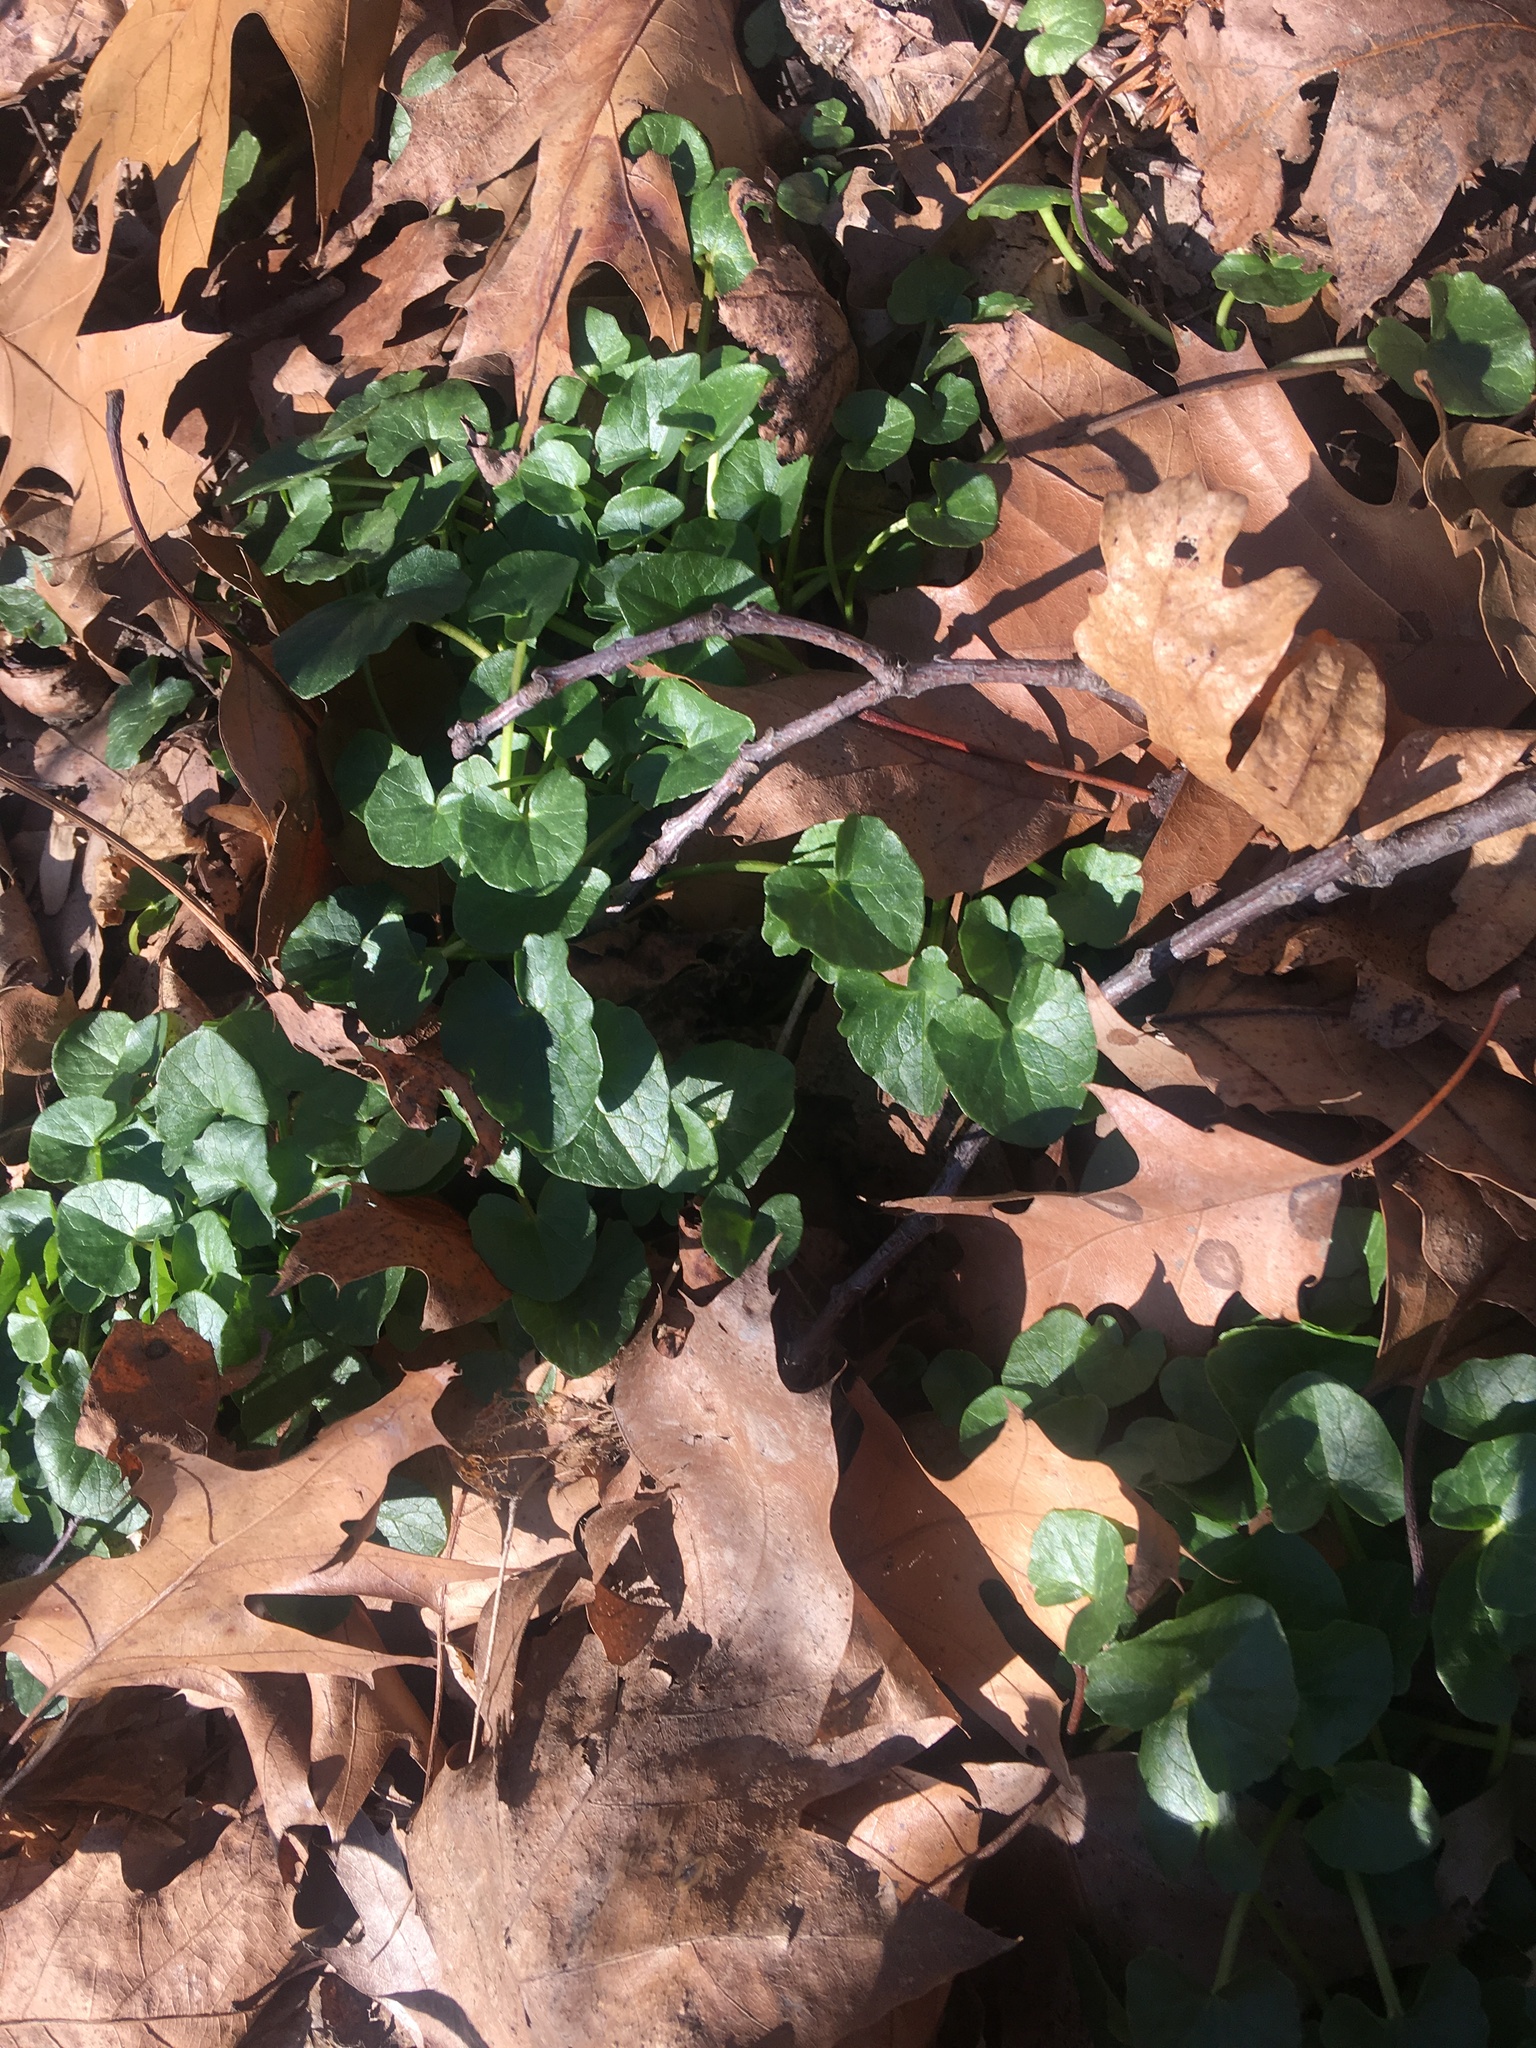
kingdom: Plantae
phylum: Tracheophyta
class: Magnoliopsida
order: Ranunculales
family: Ranunculaceae
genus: Ficaria
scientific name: Ficaria verna
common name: Lesser celandine
